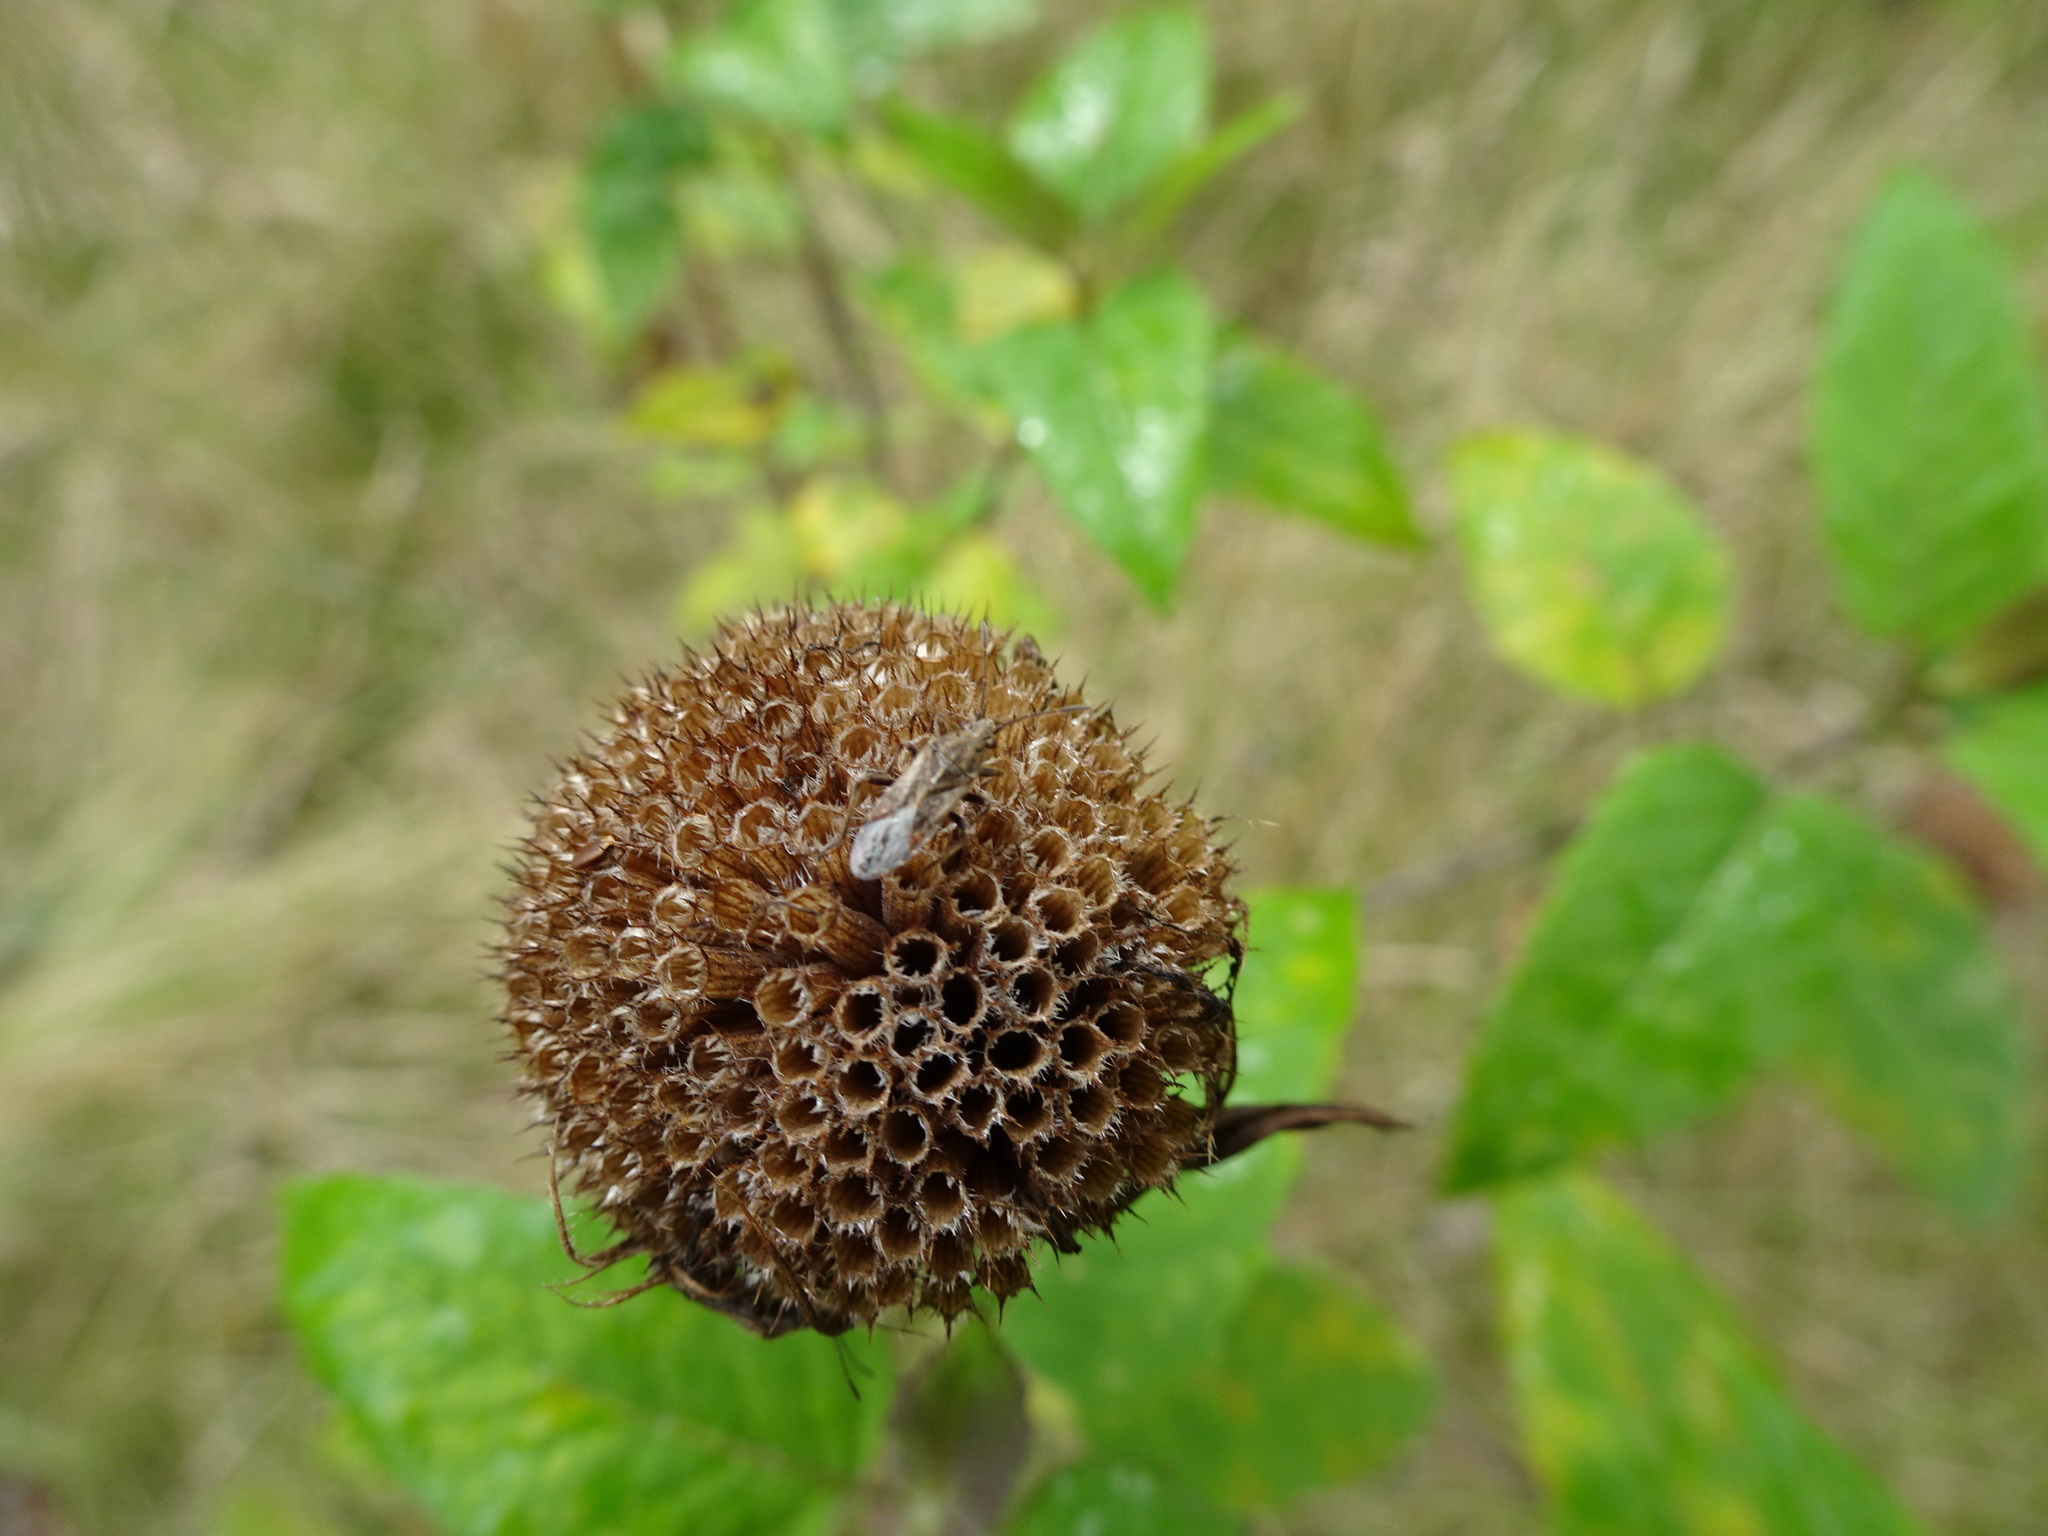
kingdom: Plantae
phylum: Tracheophyta
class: Magnoliopsida
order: Lamiales
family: Lamiaceae
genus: Monarda
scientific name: Monarda fistulosa
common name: Purple beebalm
